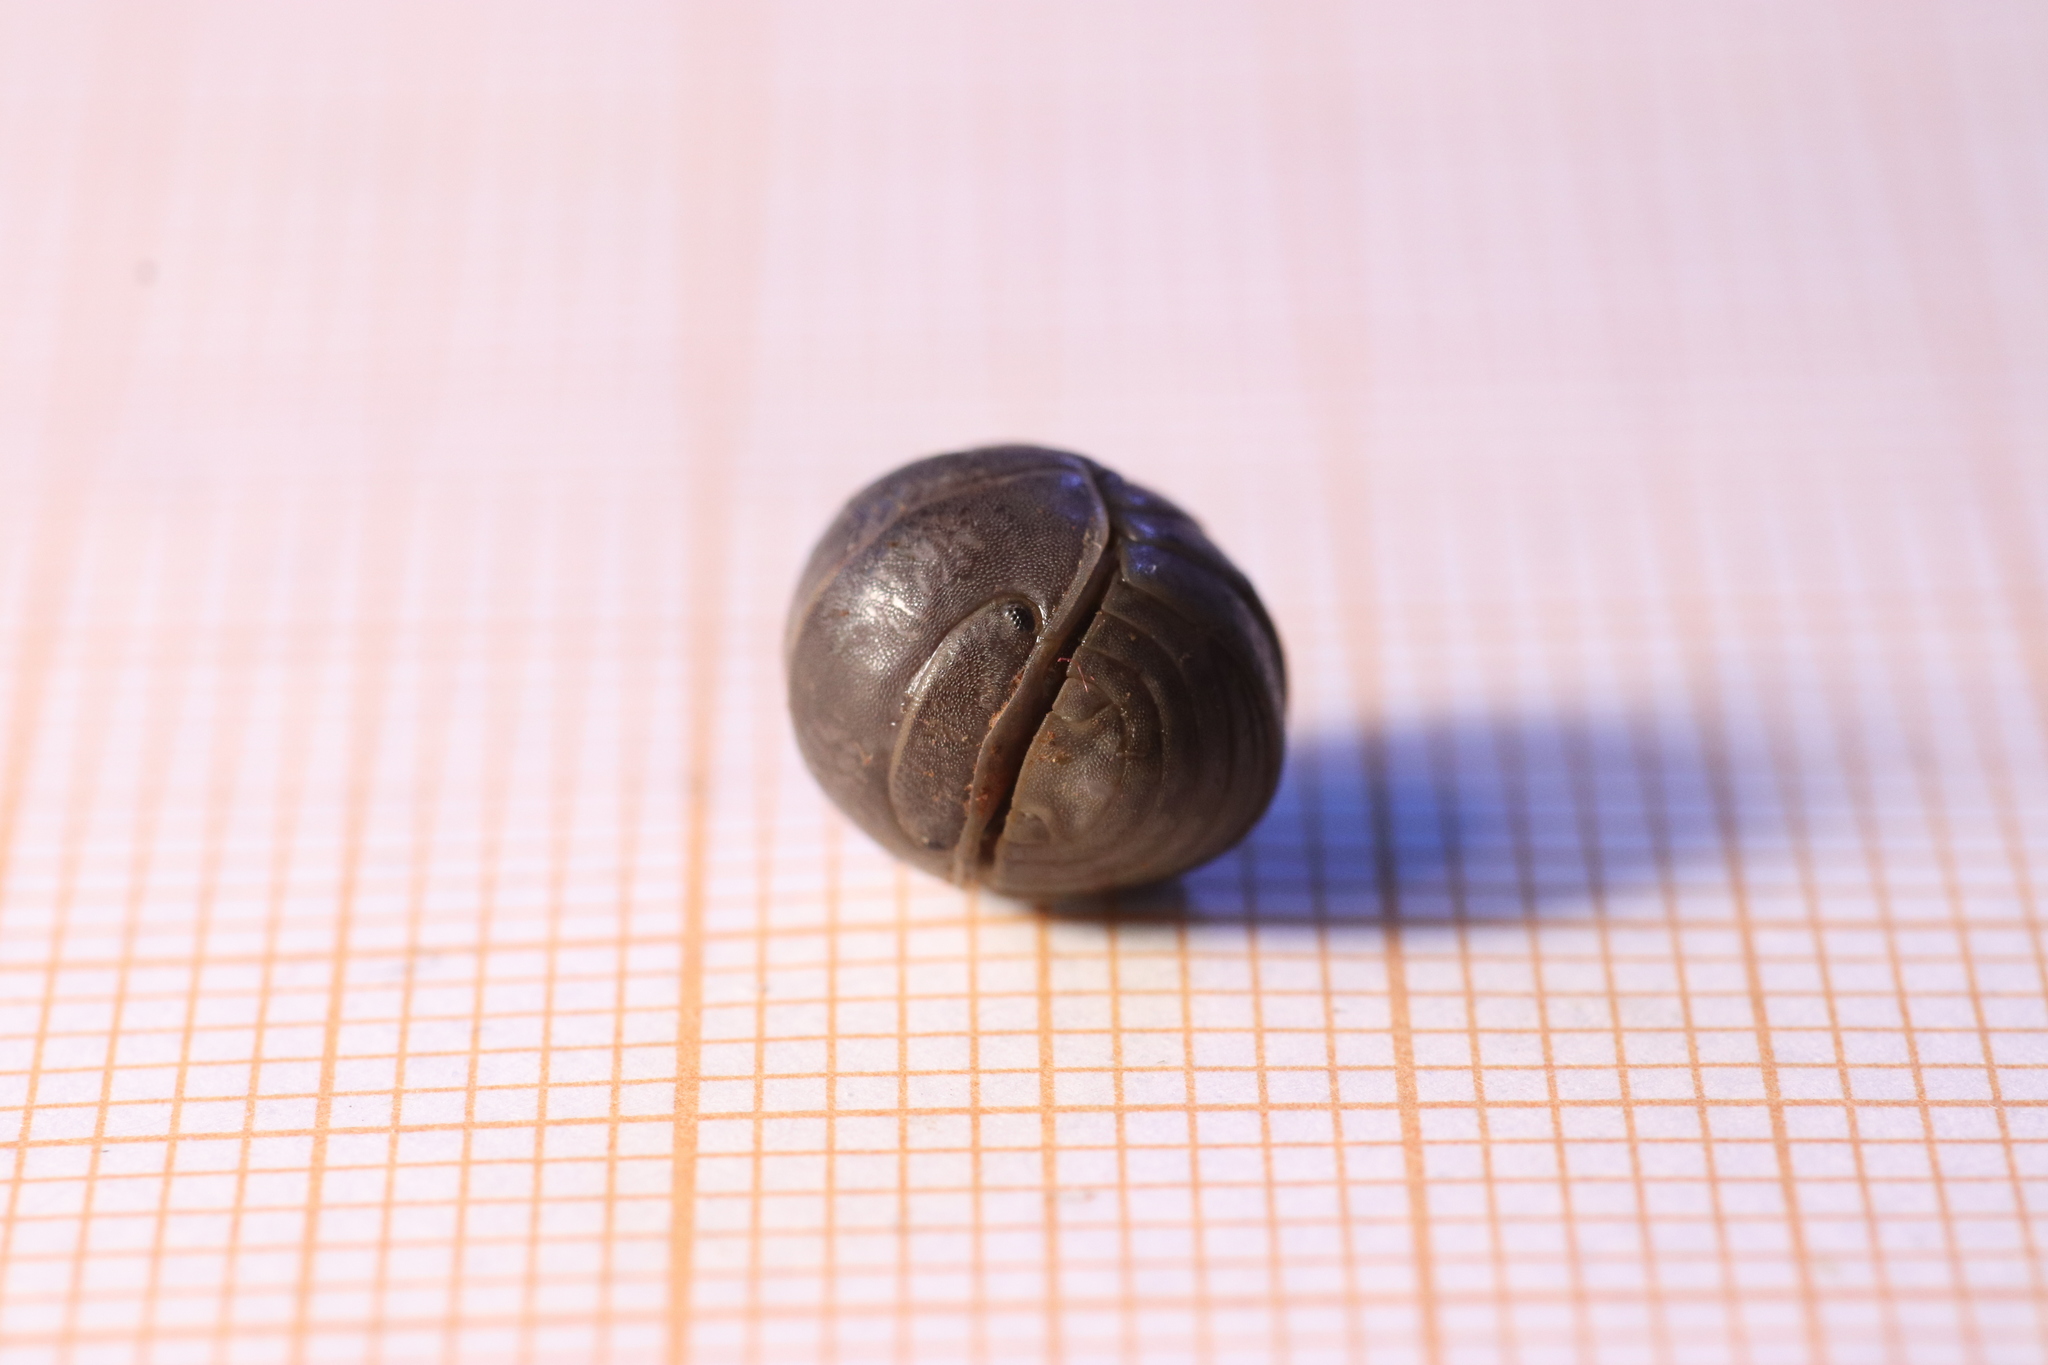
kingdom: Animalia
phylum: Arthropoda
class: Malacostraca
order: Isopoda
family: Armadillidae
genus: Armadillo
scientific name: Armadillo officinalis
